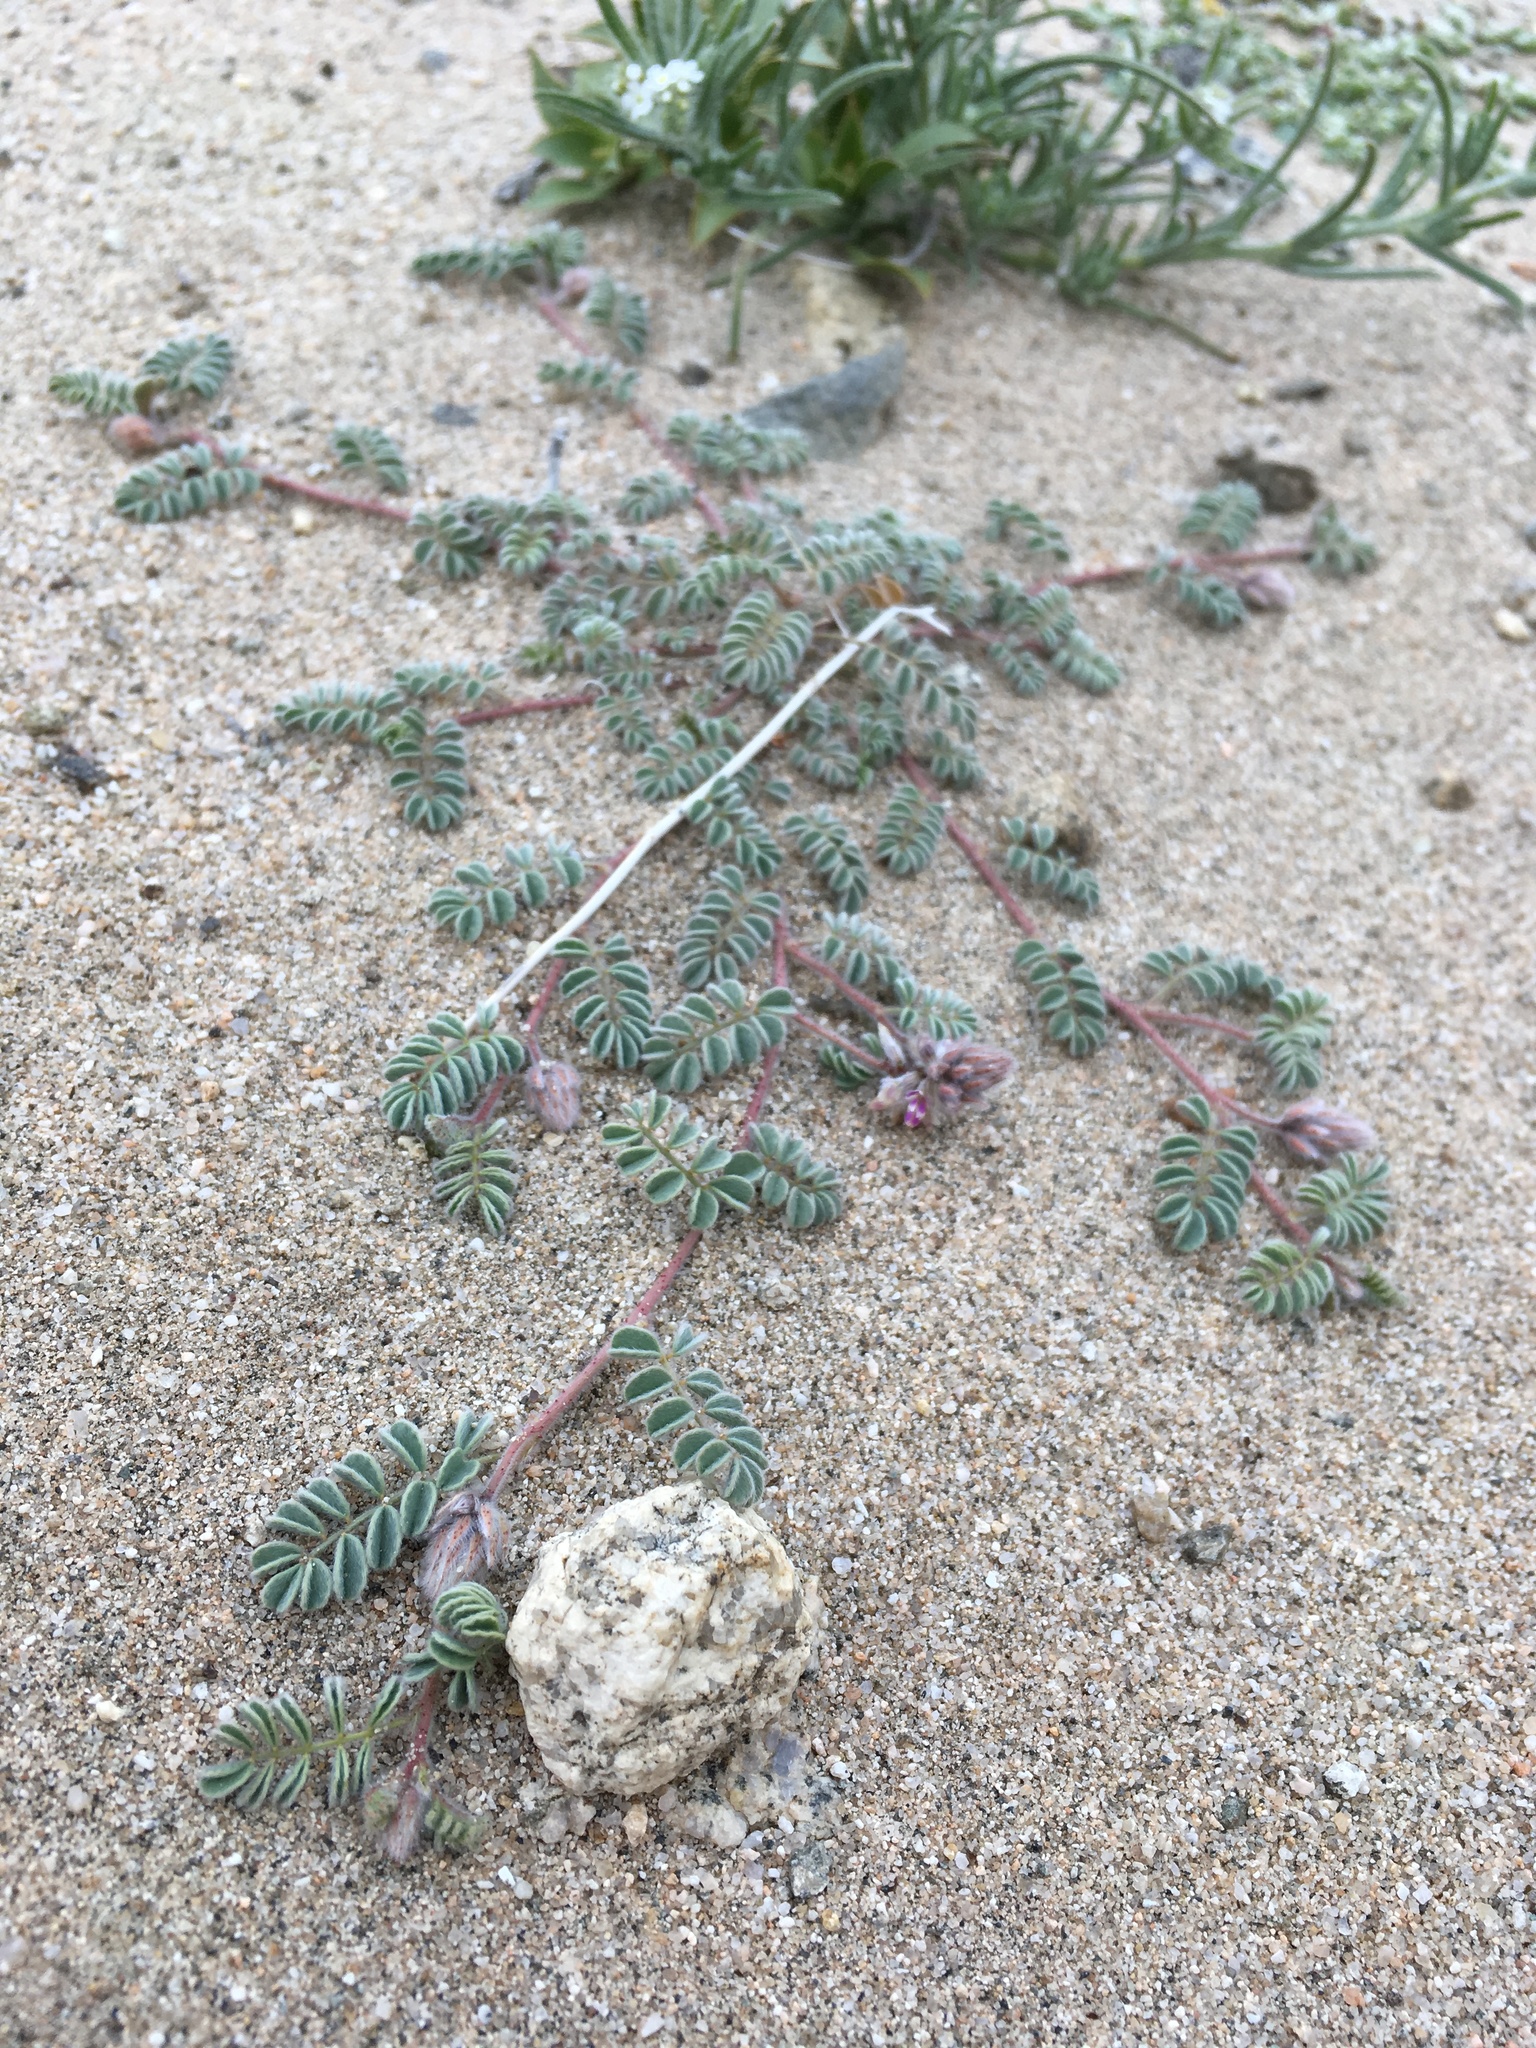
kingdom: Plantae
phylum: Tracheophyta
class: Magnoliopsida
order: Fabales
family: Fabaceae
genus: Dalea
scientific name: Dalea mollis
